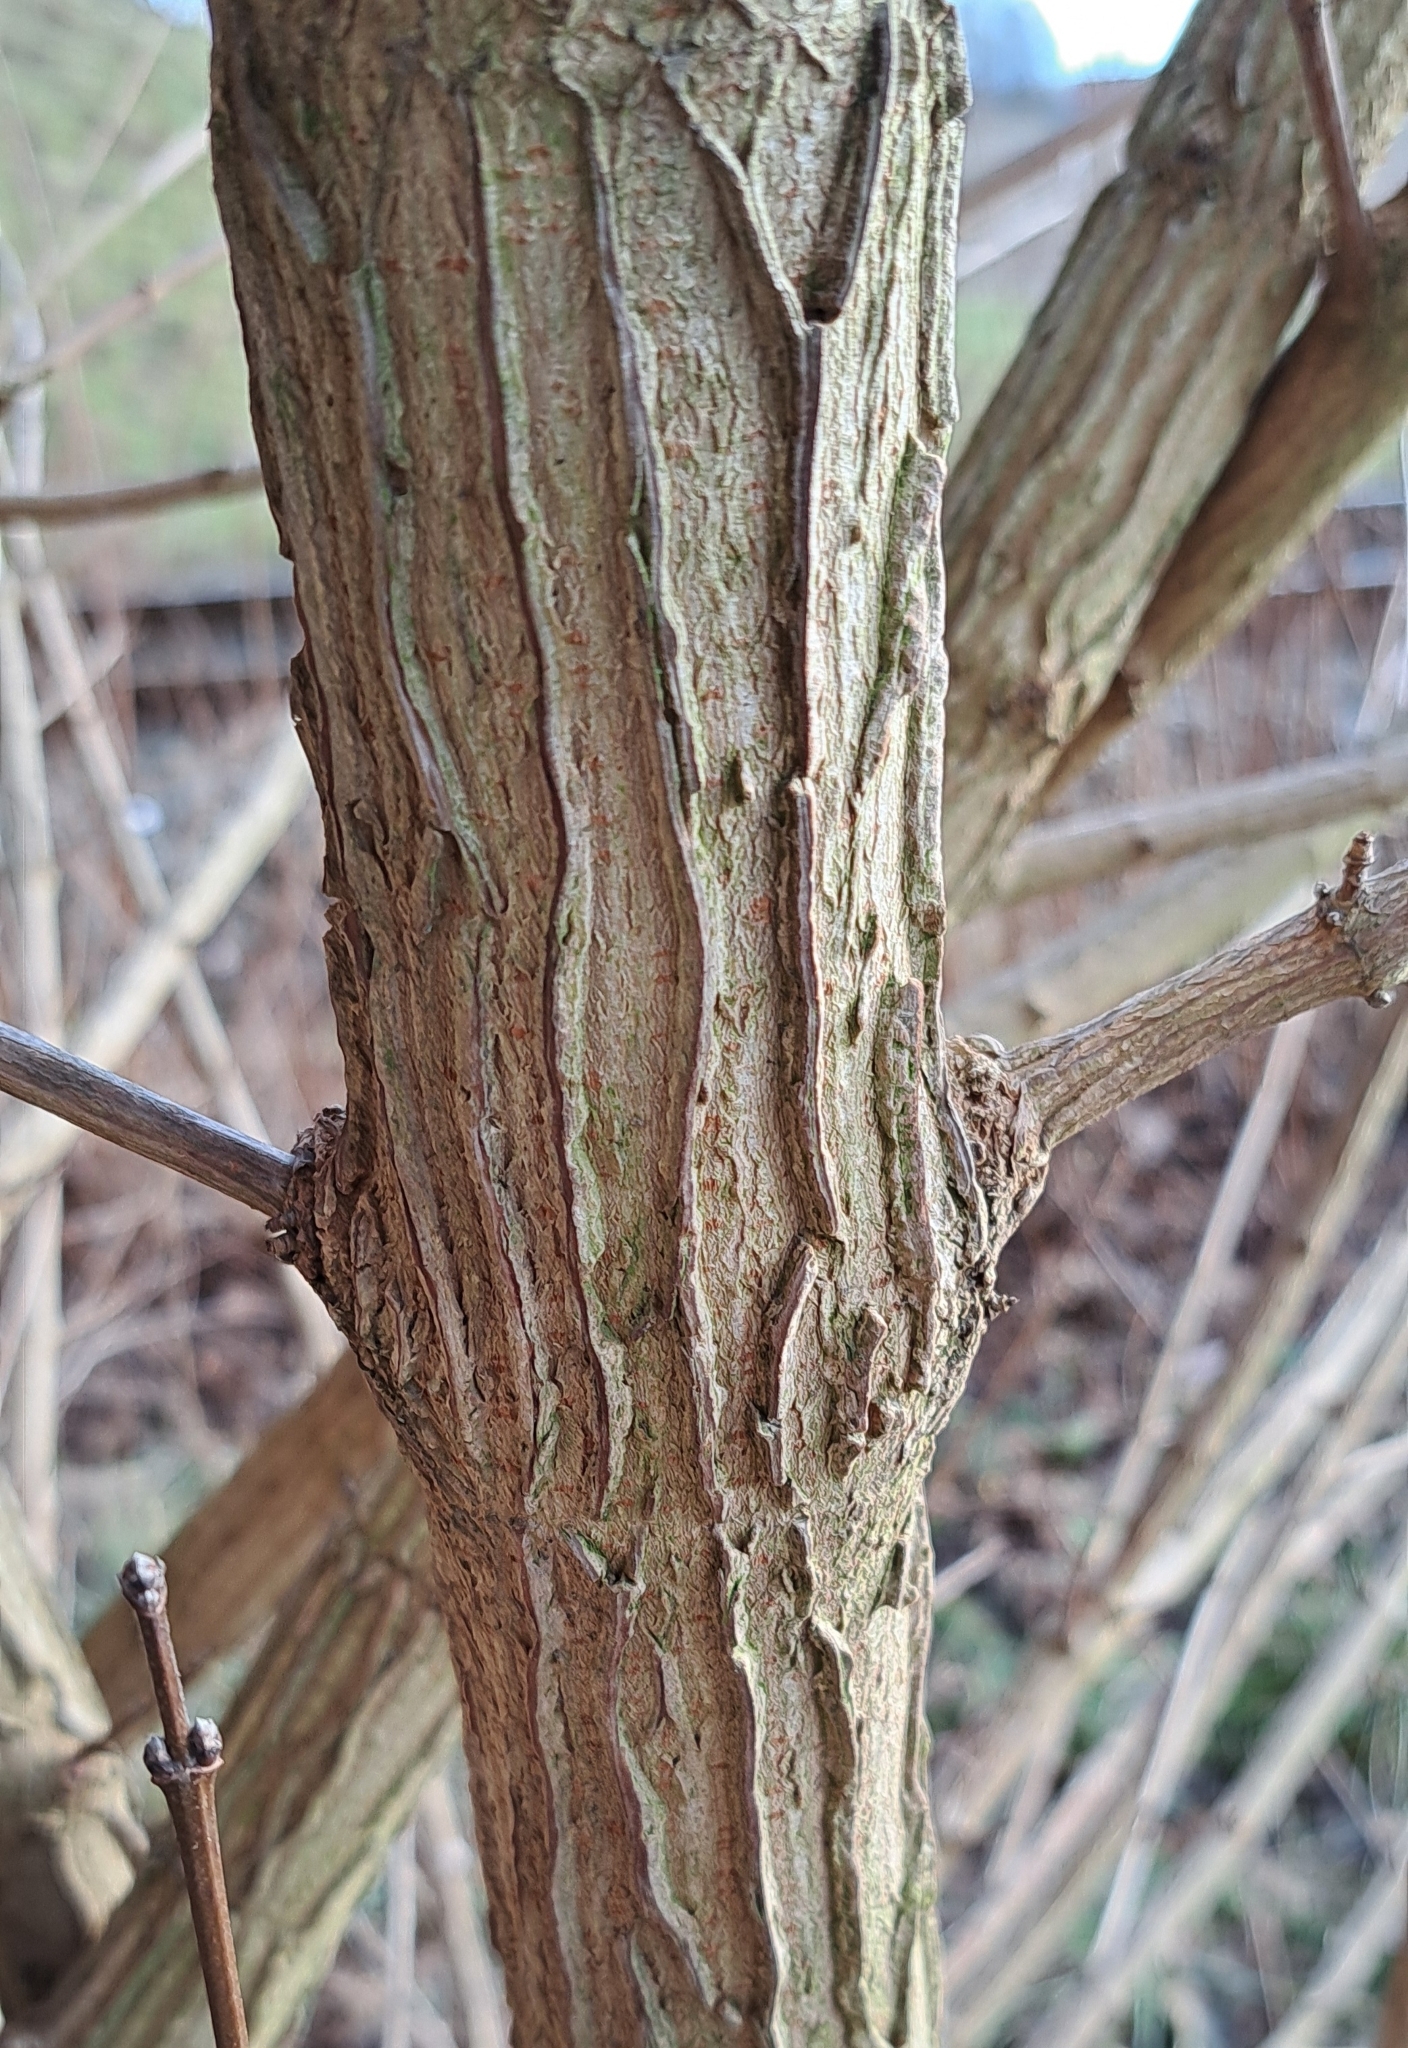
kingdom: Plantae
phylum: Tracheophyta
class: Magnoliopsida
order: Sapindales
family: Sapindaceae
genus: Acer
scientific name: Acer campestre
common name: Field maple
